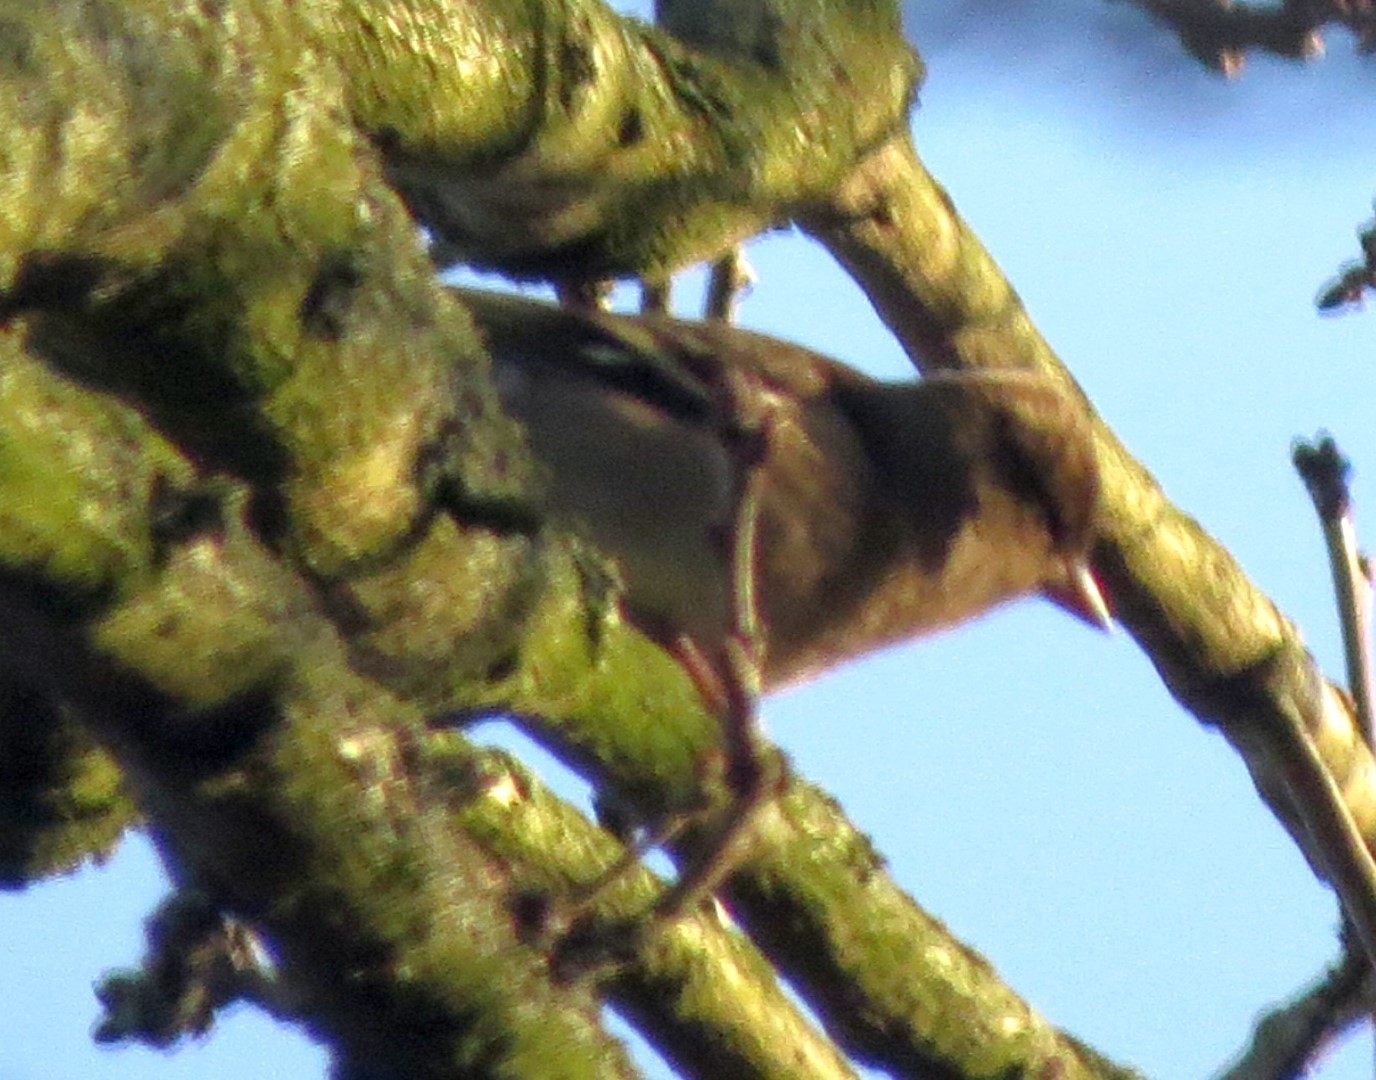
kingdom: Animalia
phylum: Chordata
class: Aves
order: Passeriformes
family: Fringillidae
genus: Fringilla
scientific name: Fringilla coelebs
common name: Common chaffinch
